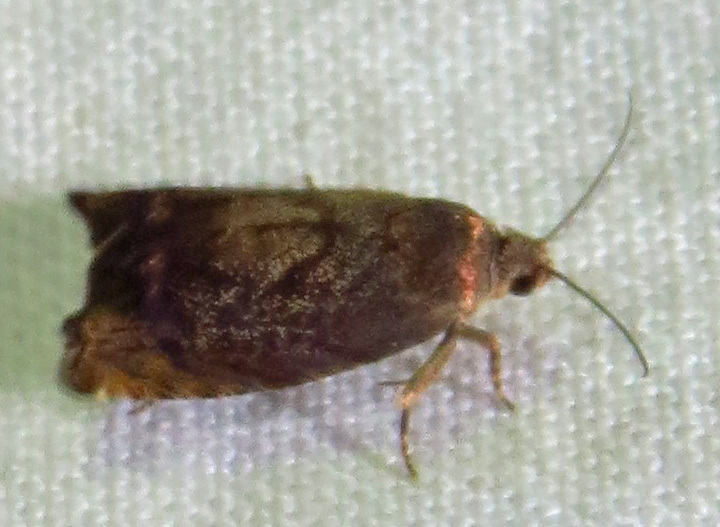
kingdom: Animalia
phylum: Arthropoda
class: Insecta
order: Lepidoptera
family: Tortricidae
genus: Cydia
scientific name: Cydia caryana
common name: Hickory shuckworm moth
